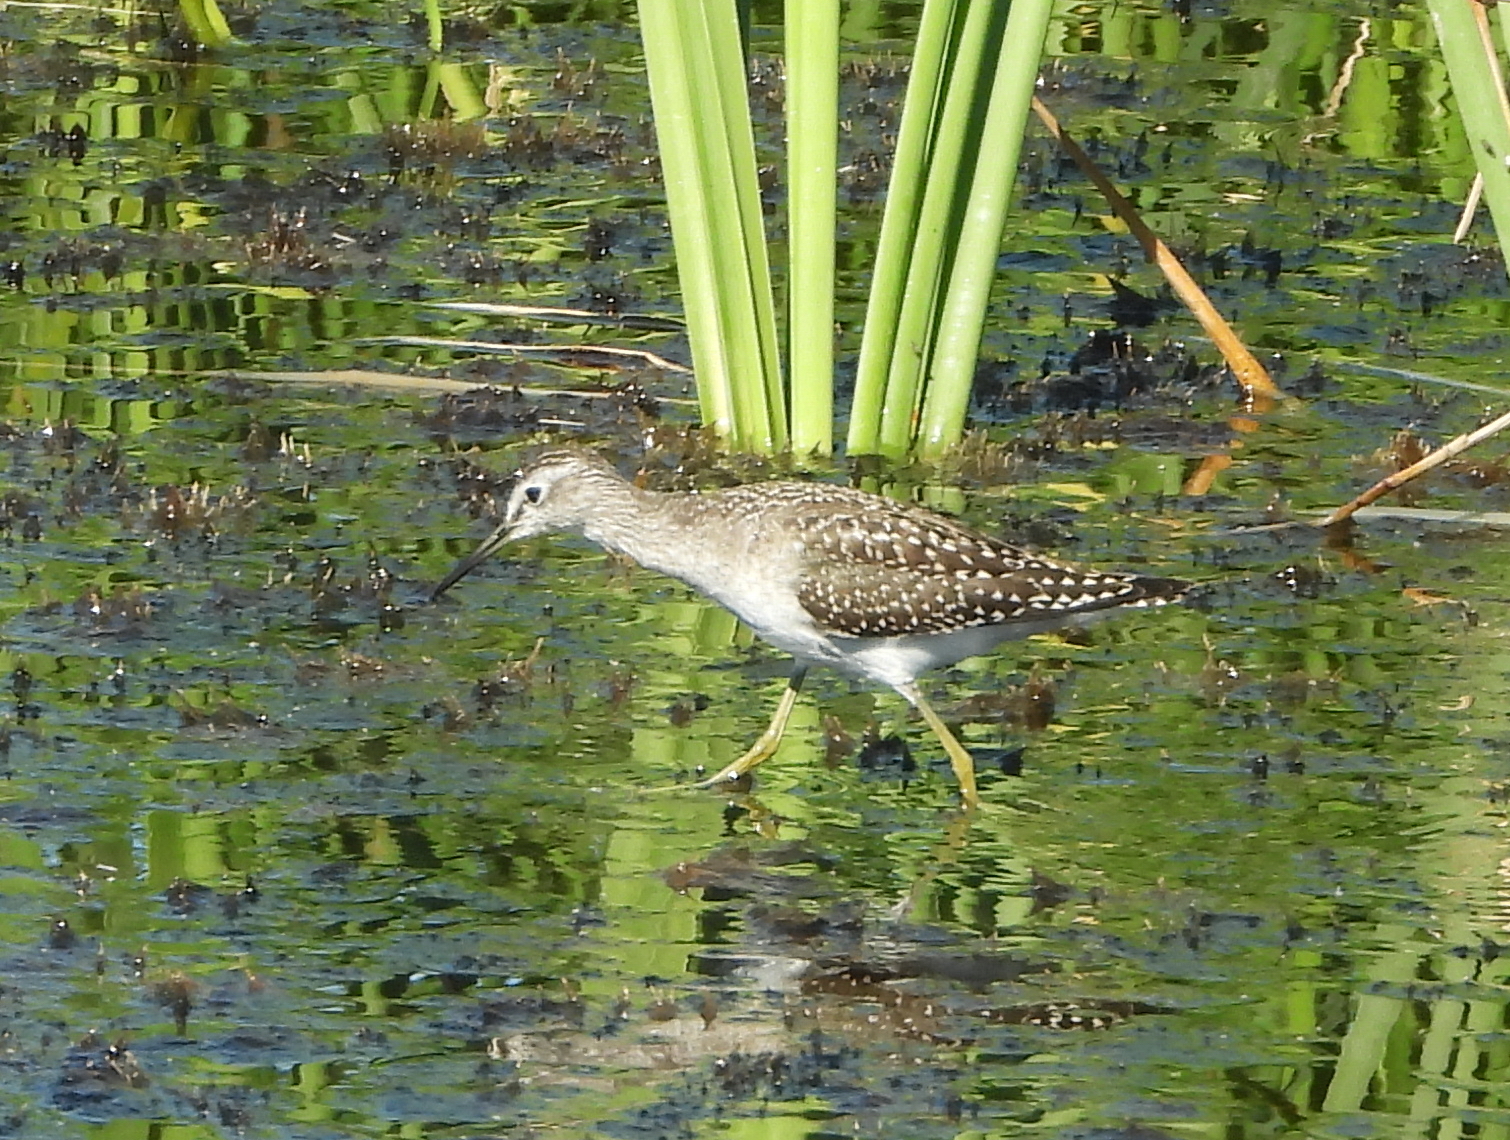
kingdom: Animalia
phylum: Chordata
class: Aves
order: Charadriiformes
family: Scolopacidae
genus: Tringa
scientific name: Tringa glareola
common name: Wood sandpiper
